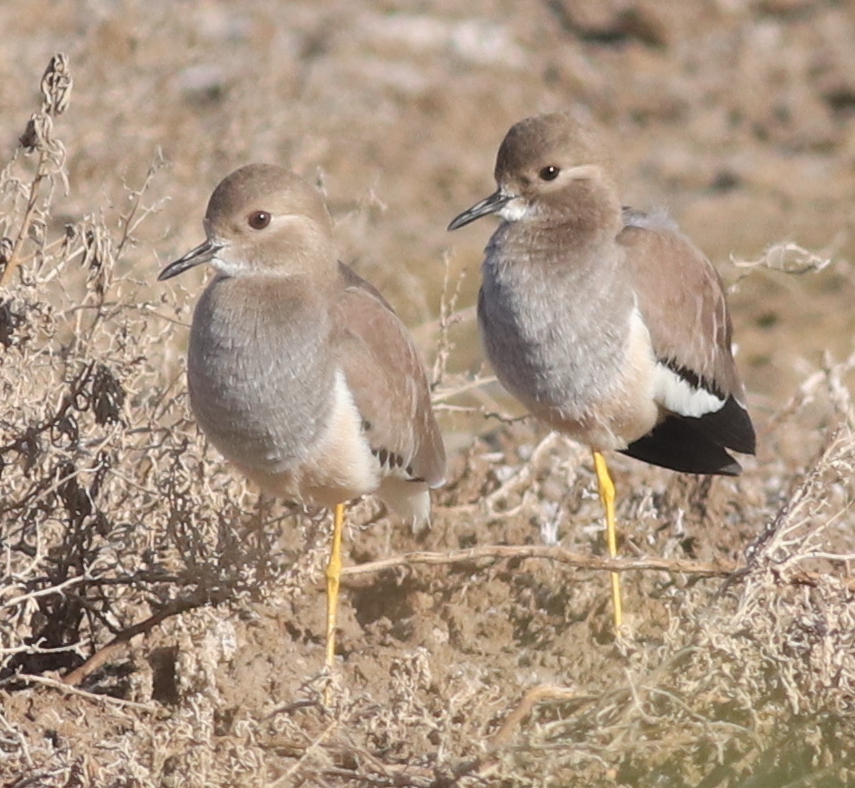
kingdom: Animalia
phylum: Chordata
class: Aves
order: Charadriiformes
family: Charadriidae
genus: Vanellus
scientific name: Vanellus leucurus
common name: White-tailed lapwing
